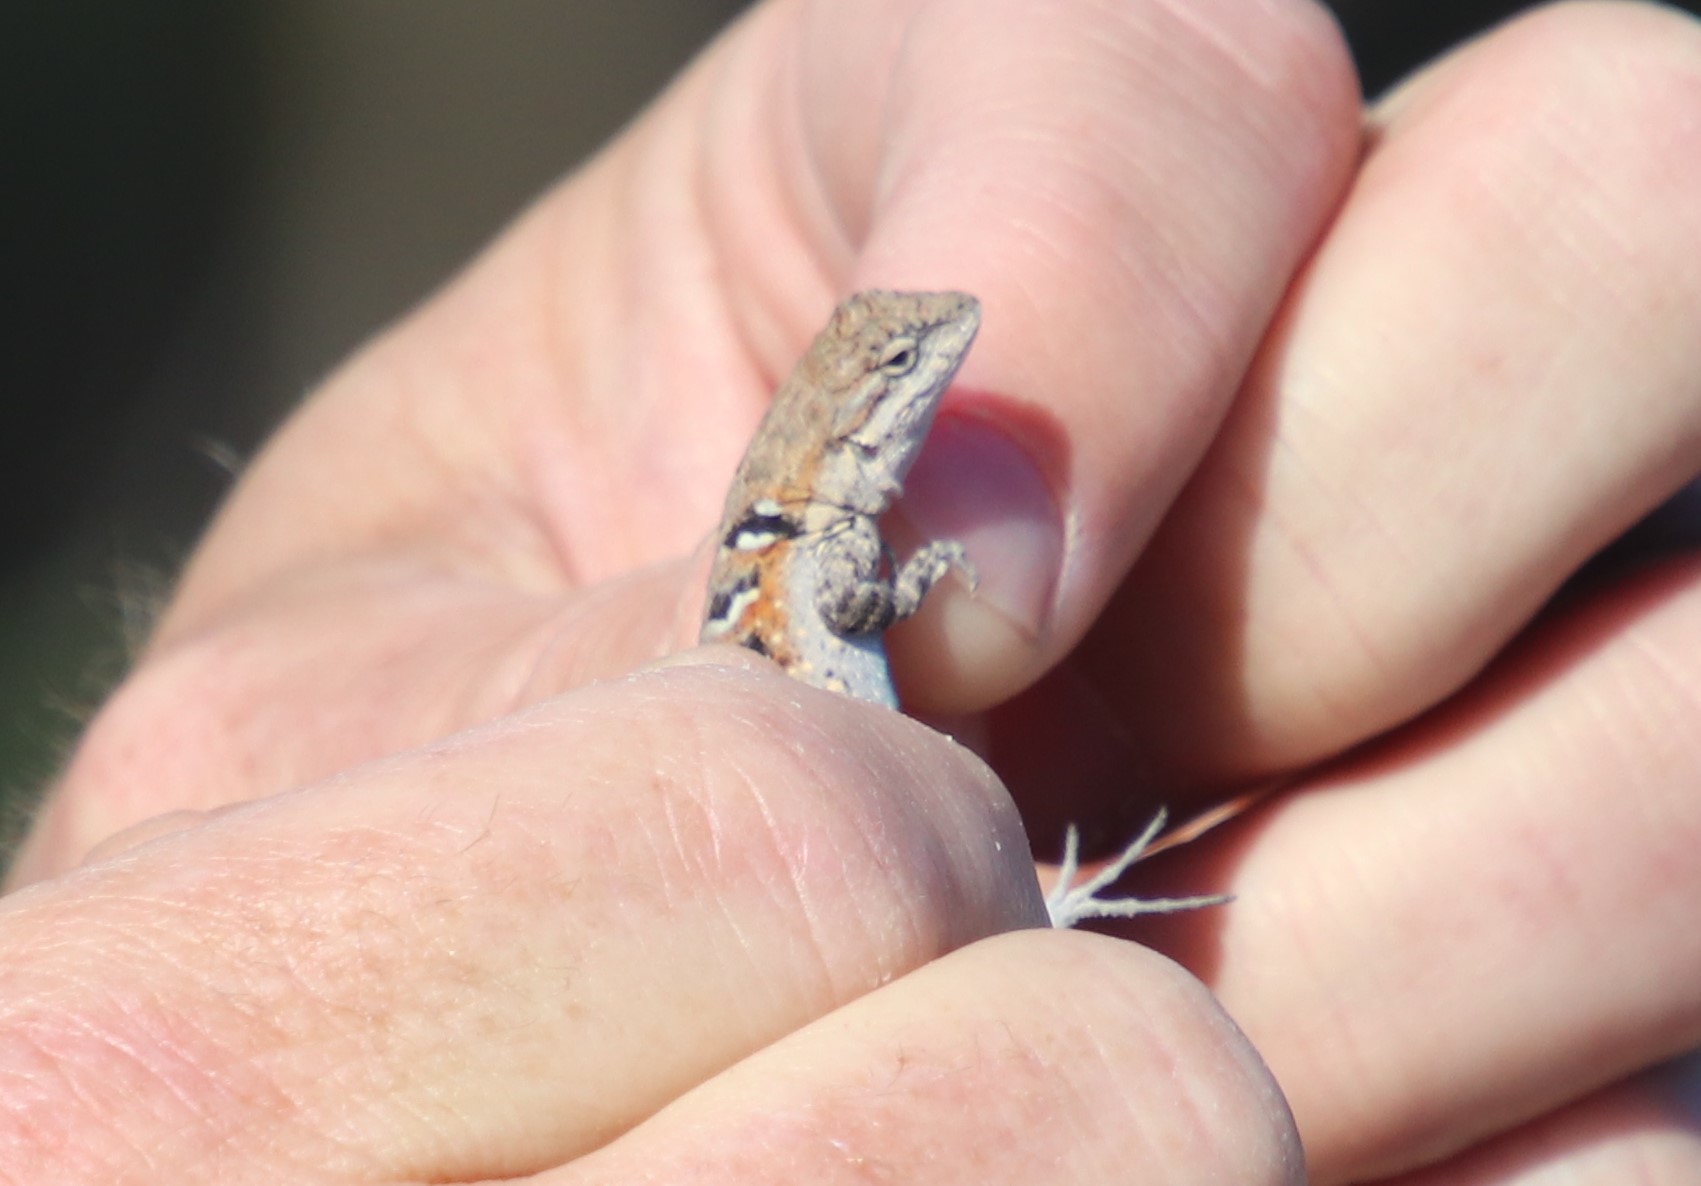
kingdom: Animalia
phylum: Chordata
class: Squamata
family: Phrynosomatidae
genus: Urosaurus
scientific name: Urosaurus nigricauda
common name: Baja california brush lizard
